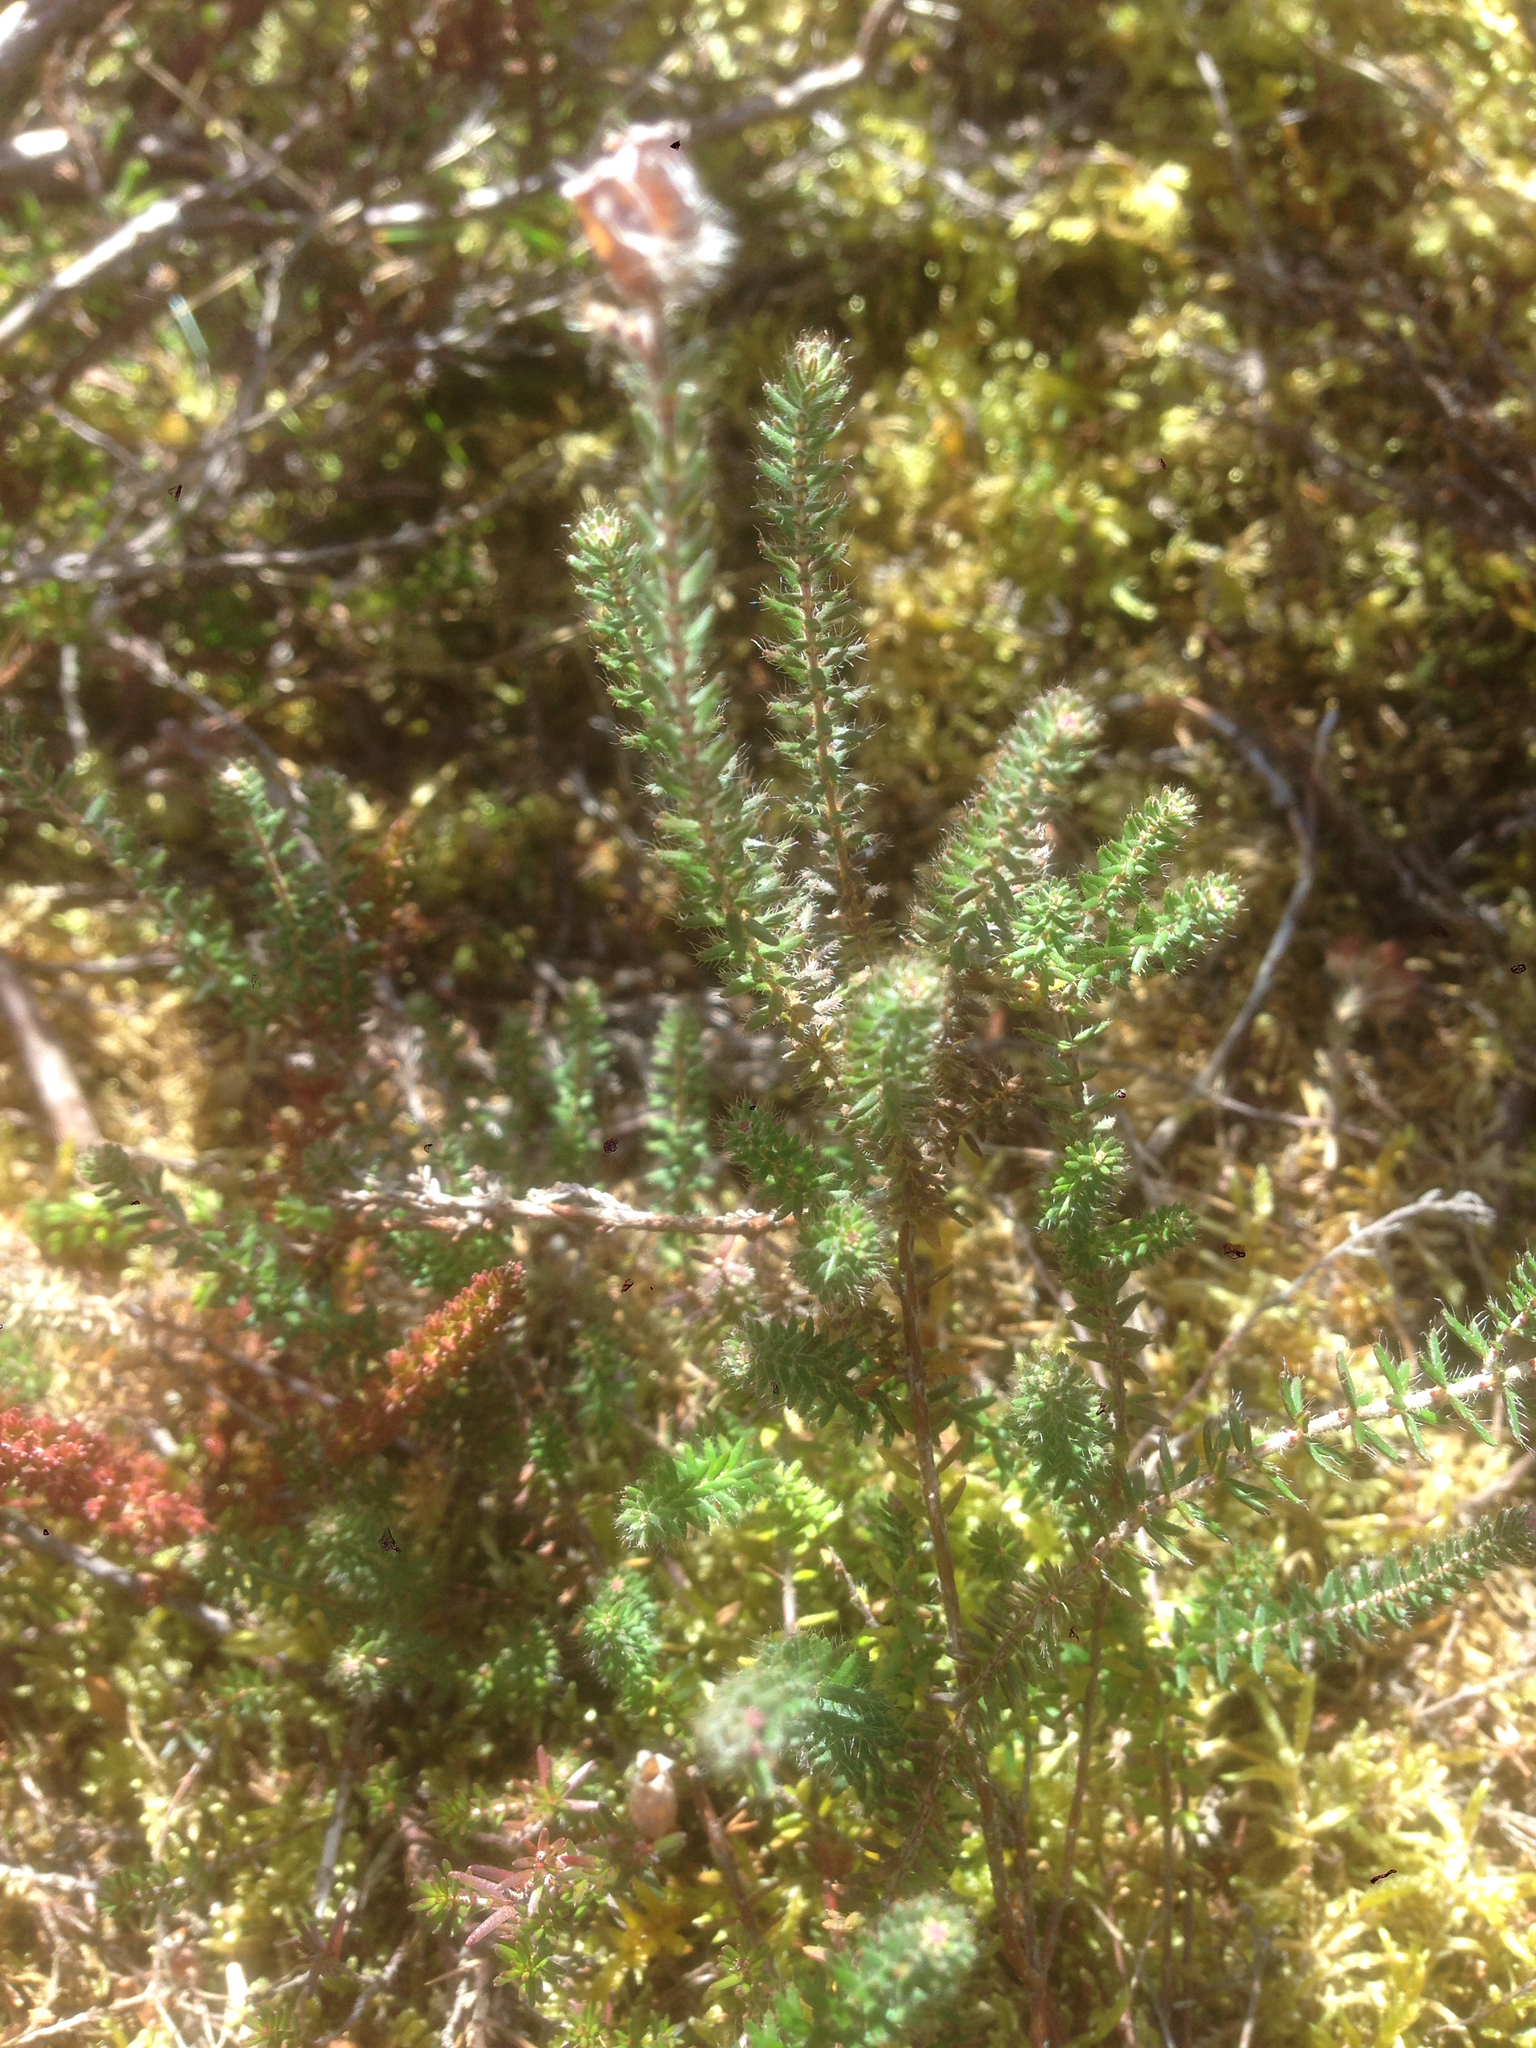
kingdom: Plantae
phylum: Tracheophyta
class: Magnoliopsida
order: Ericales
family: Ericaceae
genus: Erica
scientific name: Erica tetralix
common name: Cross-leaved heath
